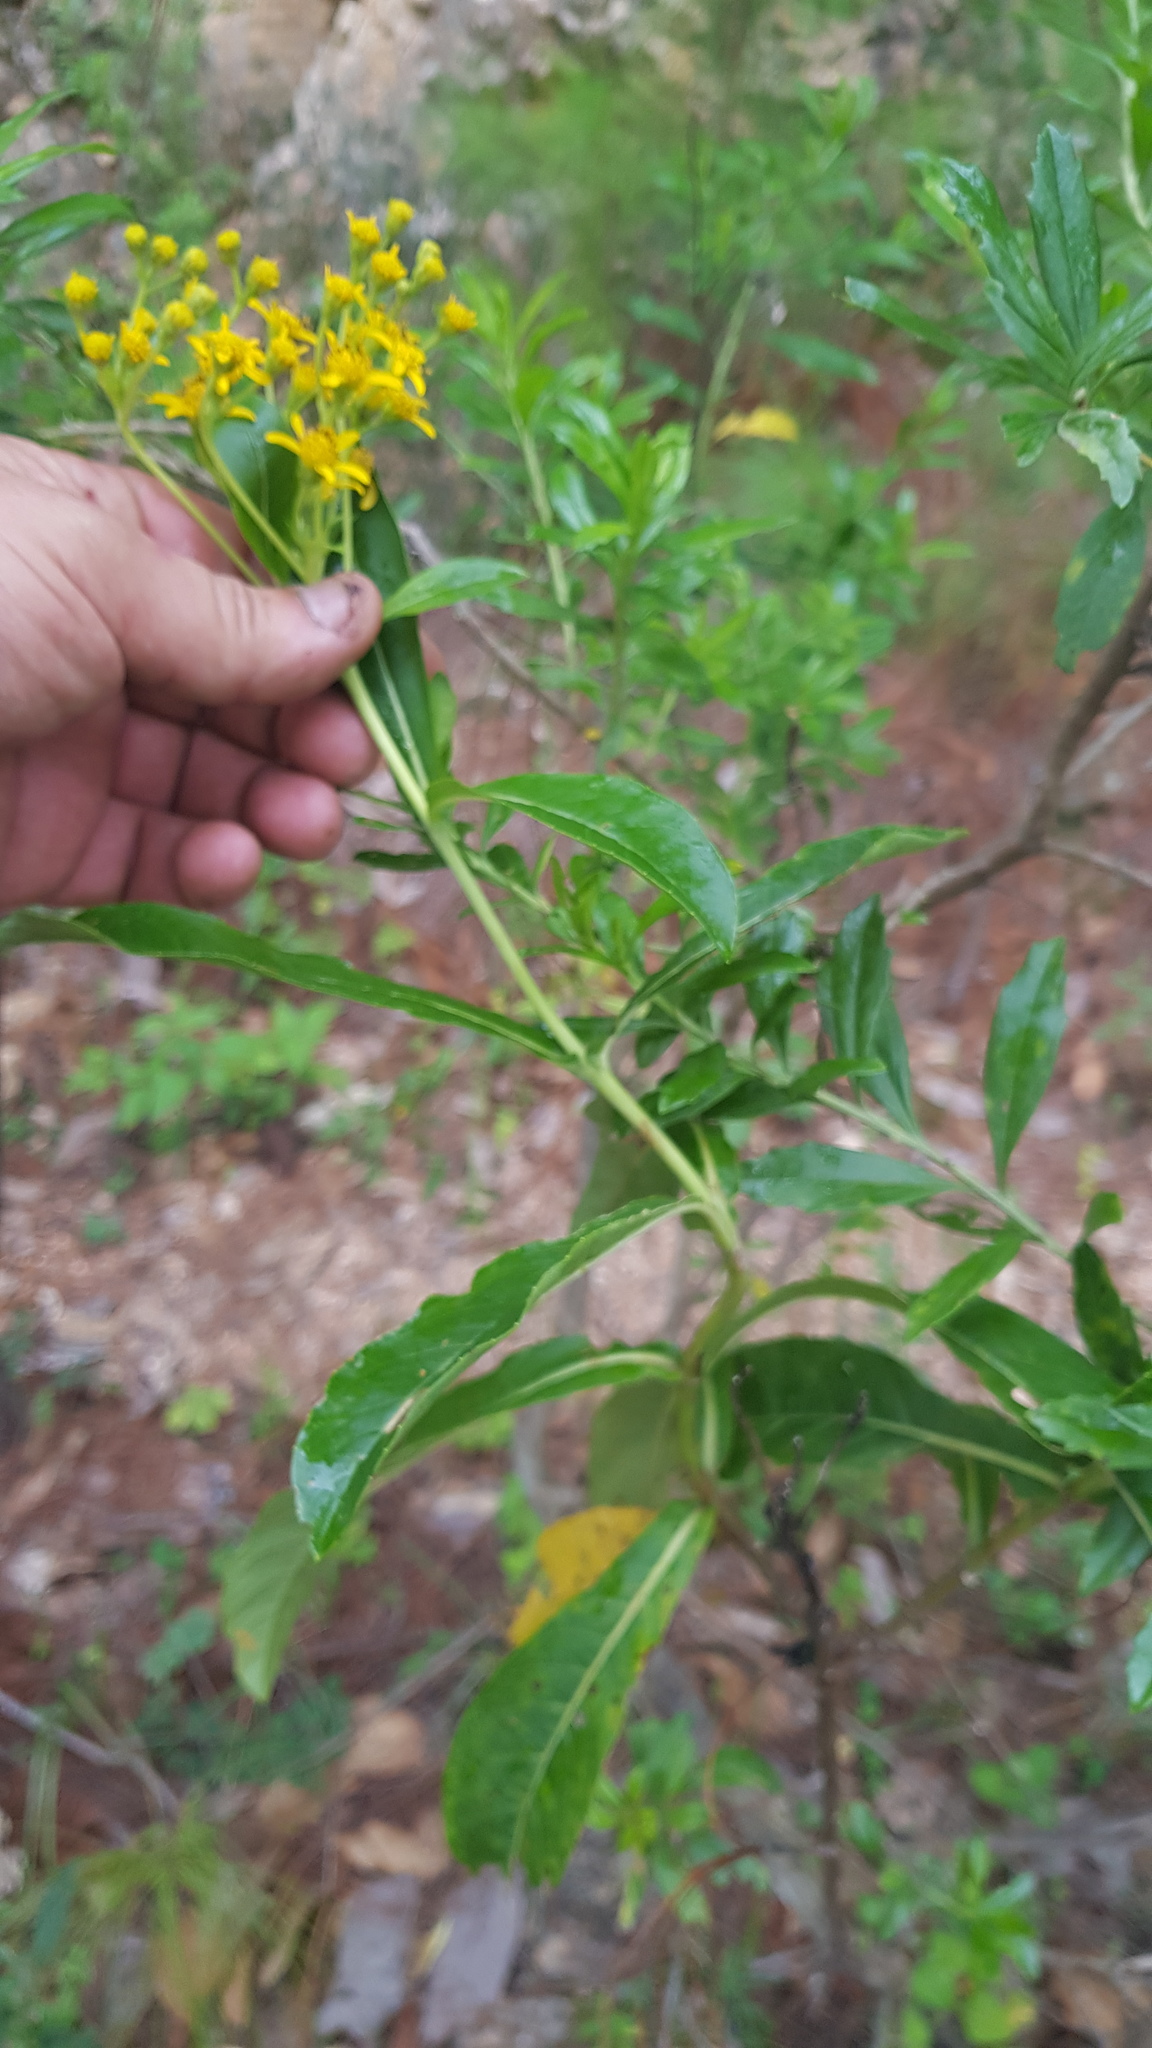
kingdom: Plantae
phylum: Tracheophyta
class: Magnoliopsida
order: Asterales
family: Asteraceae
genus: Verbesina
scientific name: Verbesina scabrida
